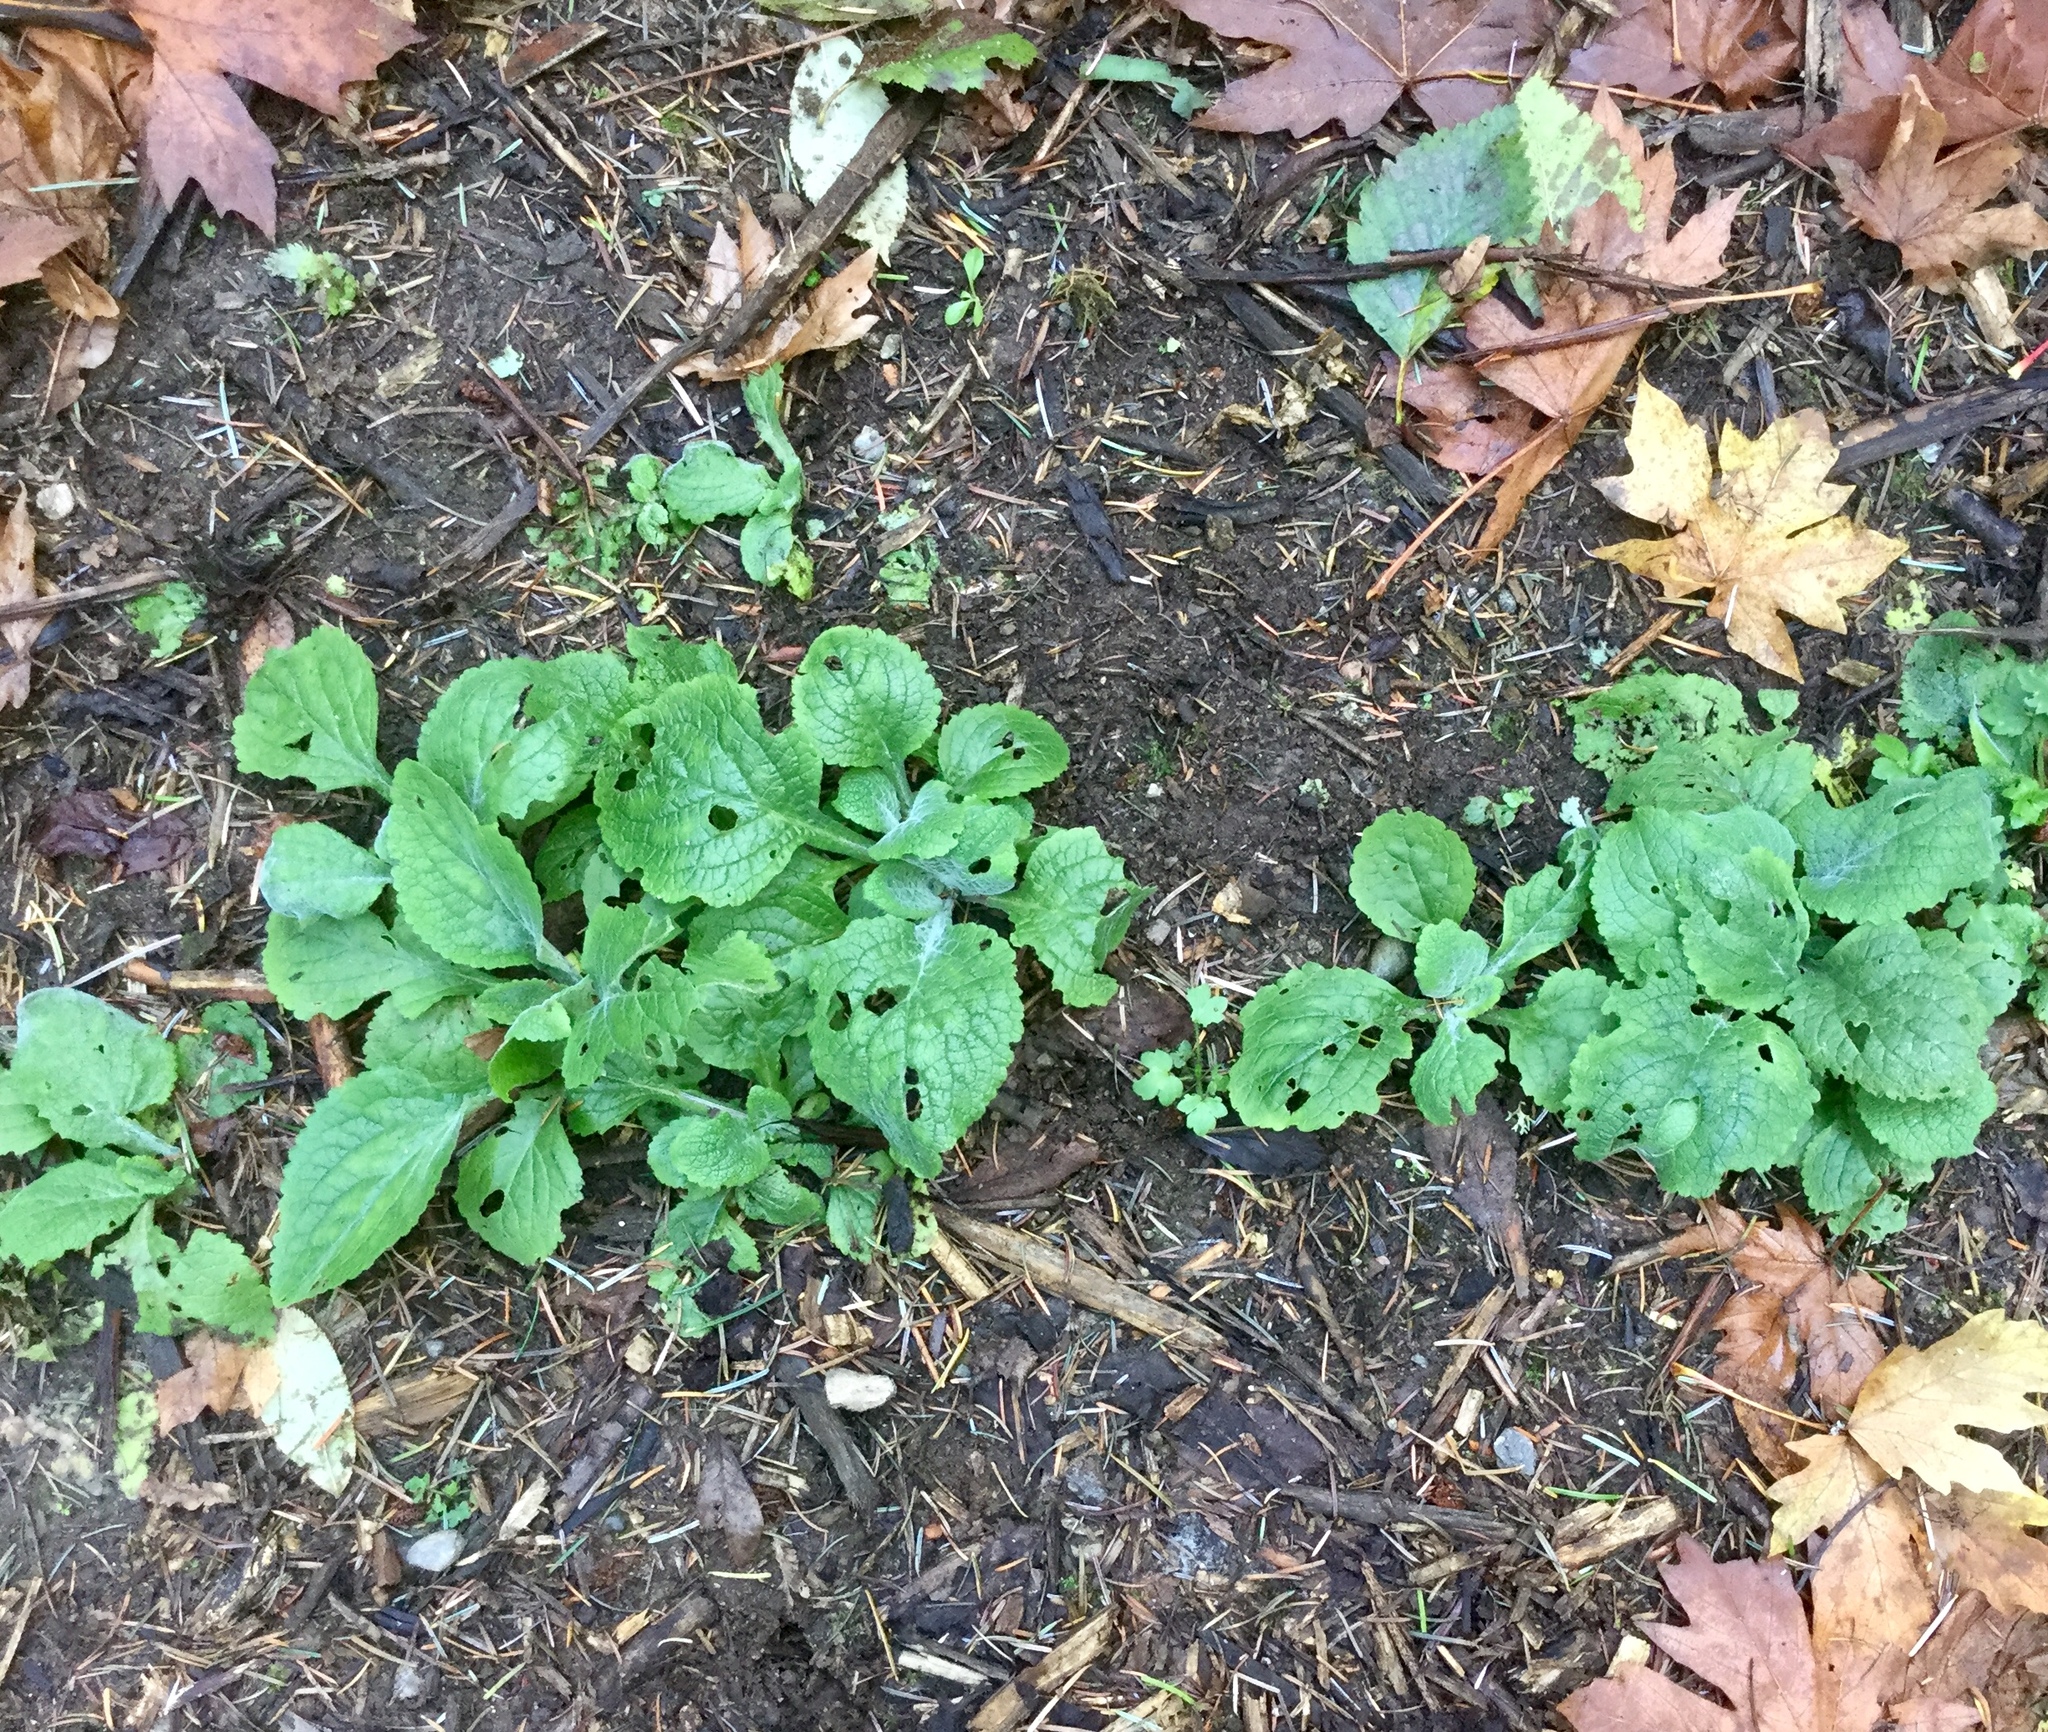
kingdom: Plantae
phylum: Tracheophyta
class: Magnoliopsida
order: Lamiales
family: Plantaginaceae
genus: Digitalis
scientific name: Digitalis purpurea
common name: Foxglove
